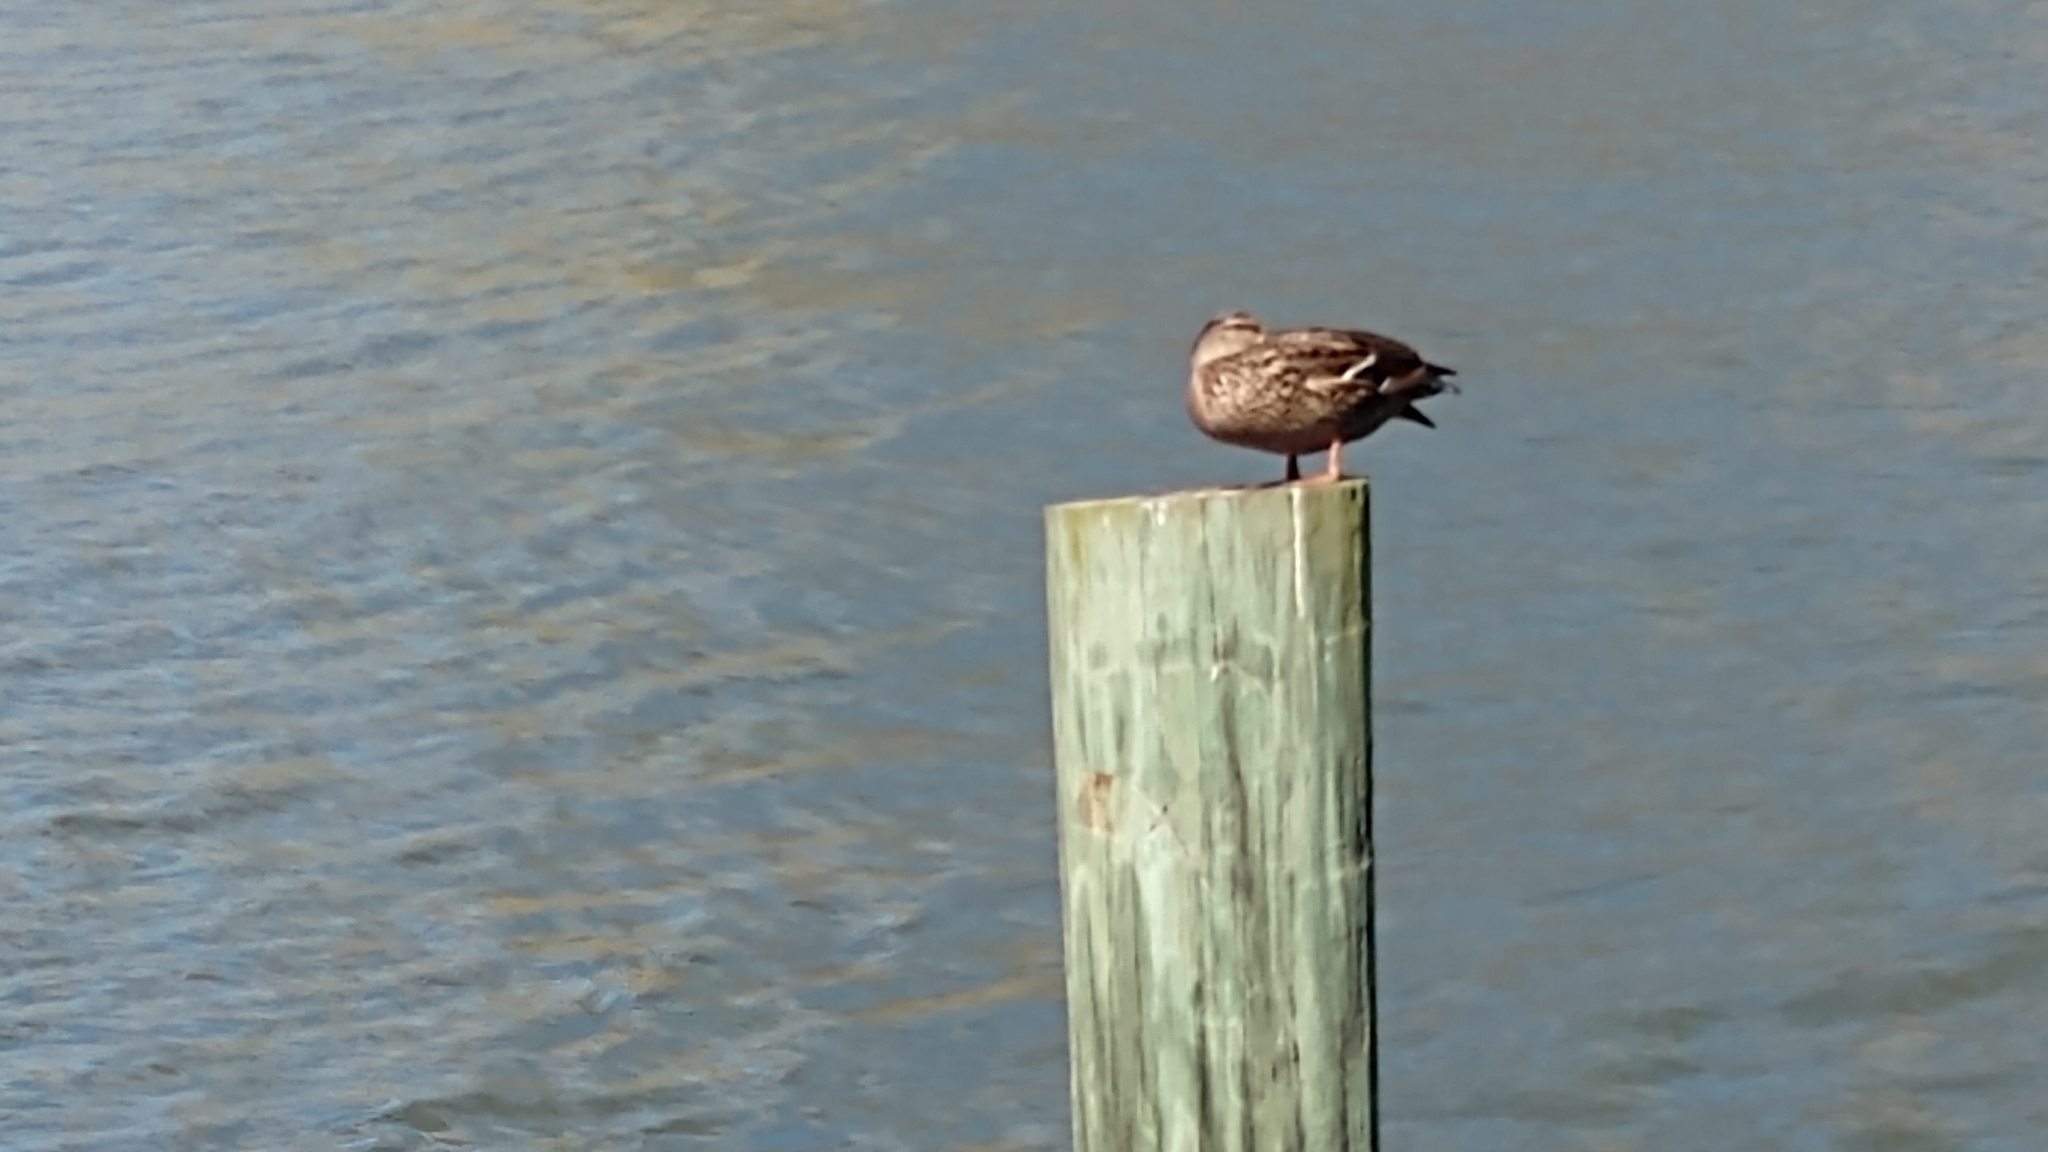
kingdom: Animalia
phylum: Chordata
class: Aves
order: Anseriformes
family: Anatidae
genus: Anas
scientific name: Anas platyrhynchos
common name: Mallard
